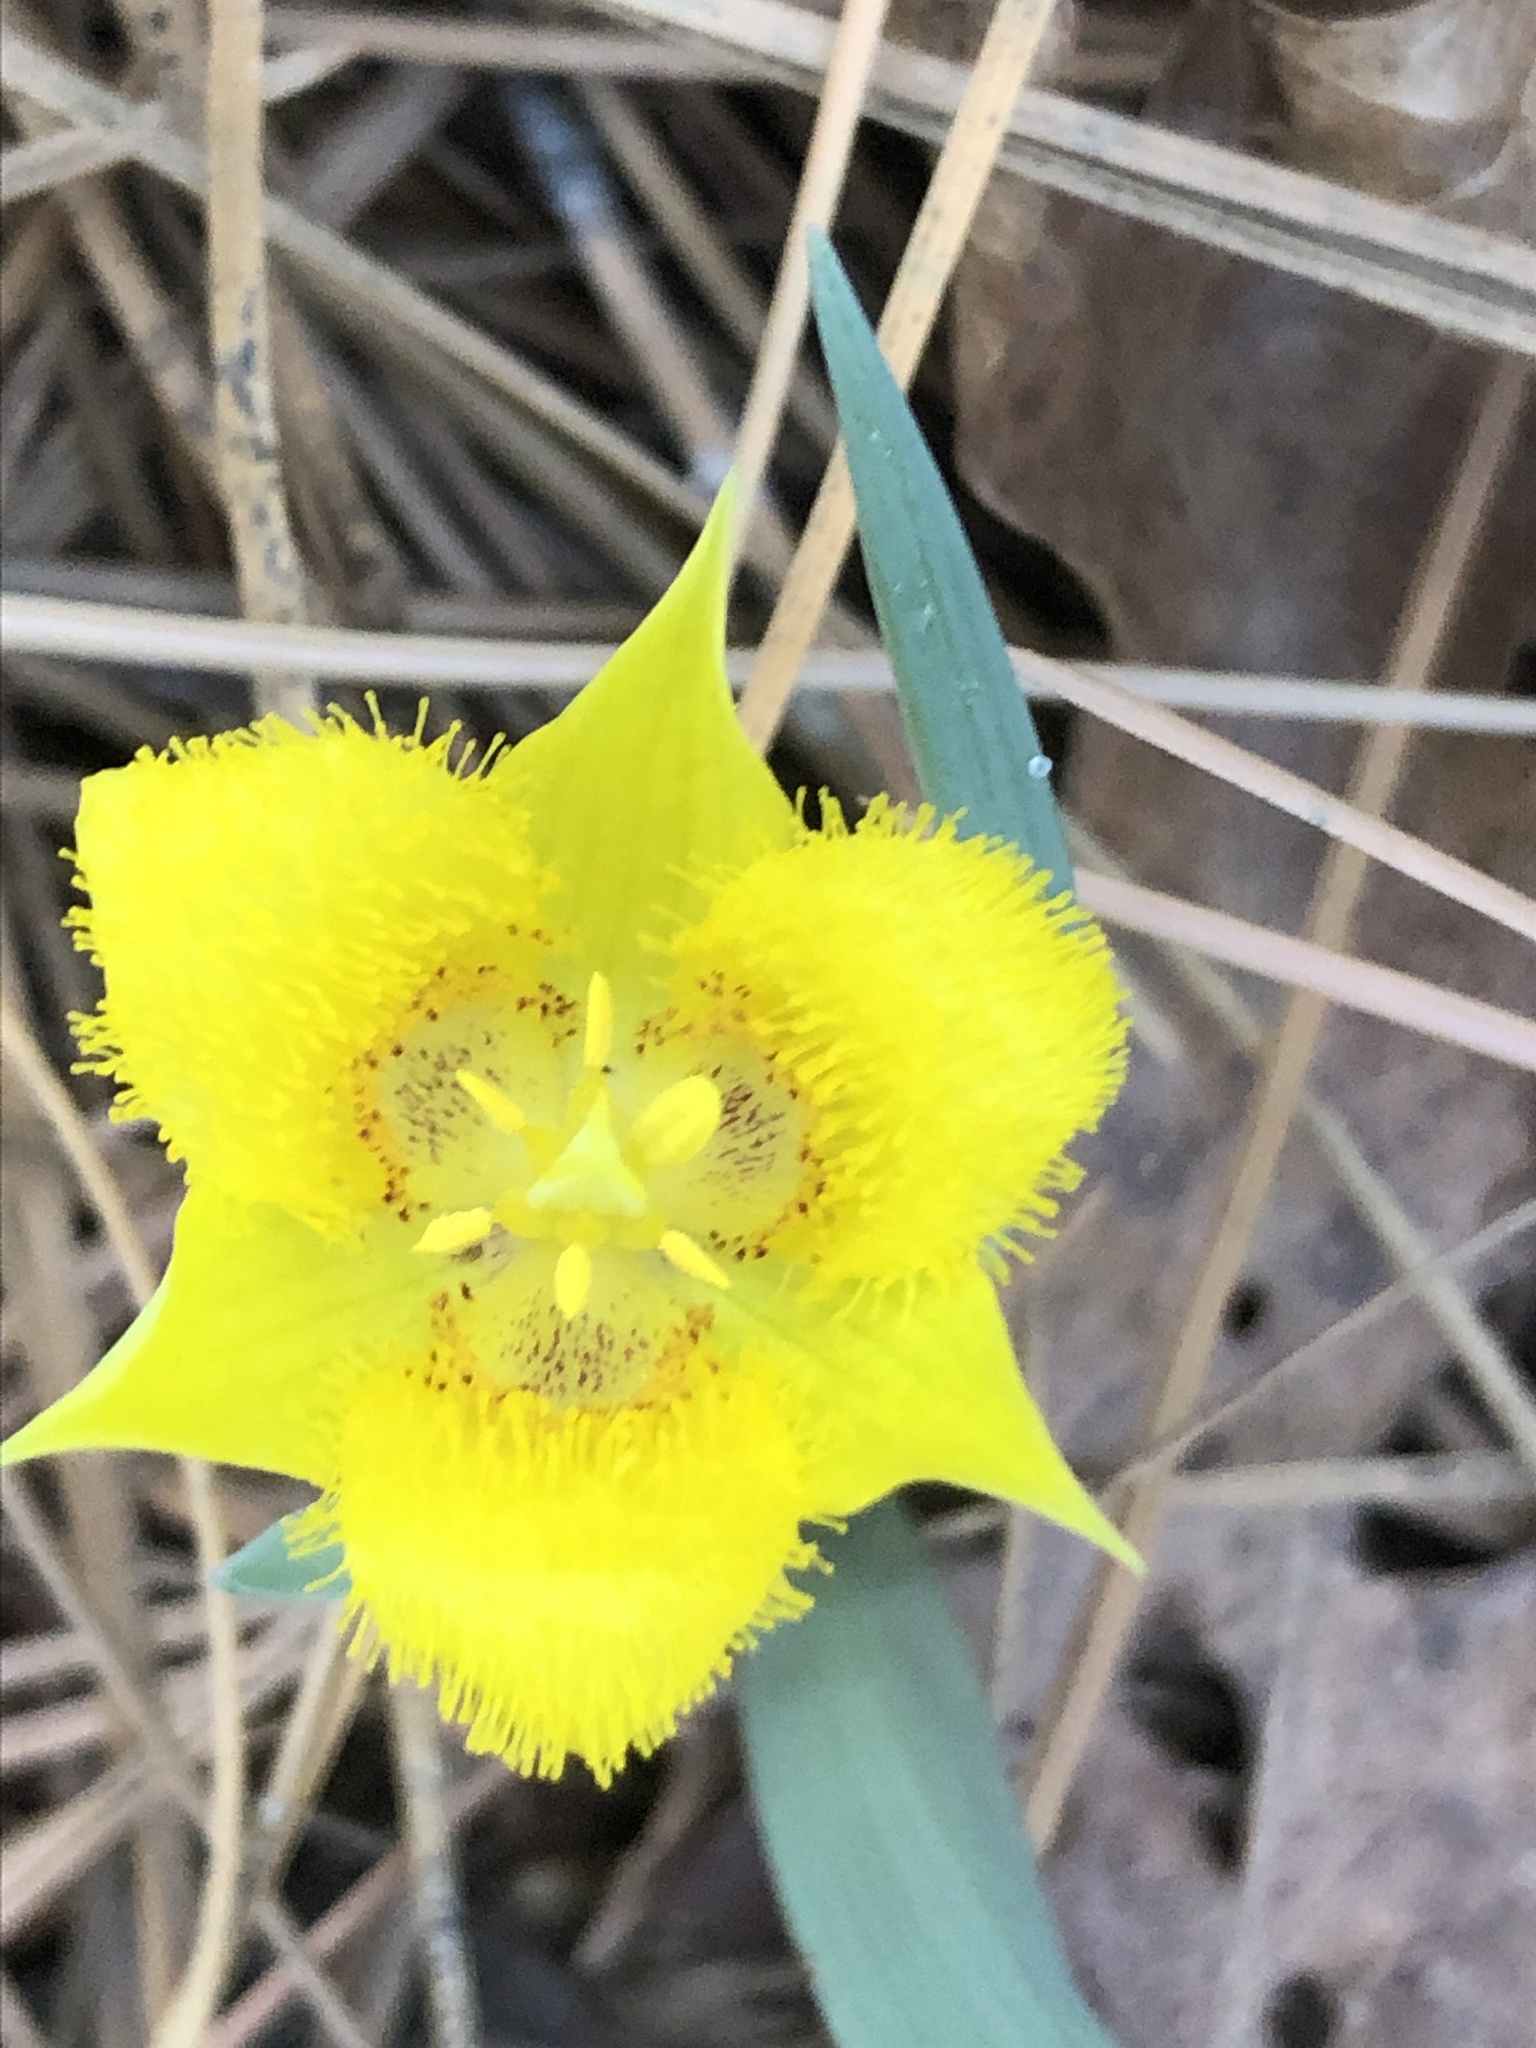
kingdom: Plantae
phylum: Tracheophyta
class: Liliopsida
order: Liliales
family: Liliaceae
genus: Calochortus
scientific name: Calochortus monophyllus
